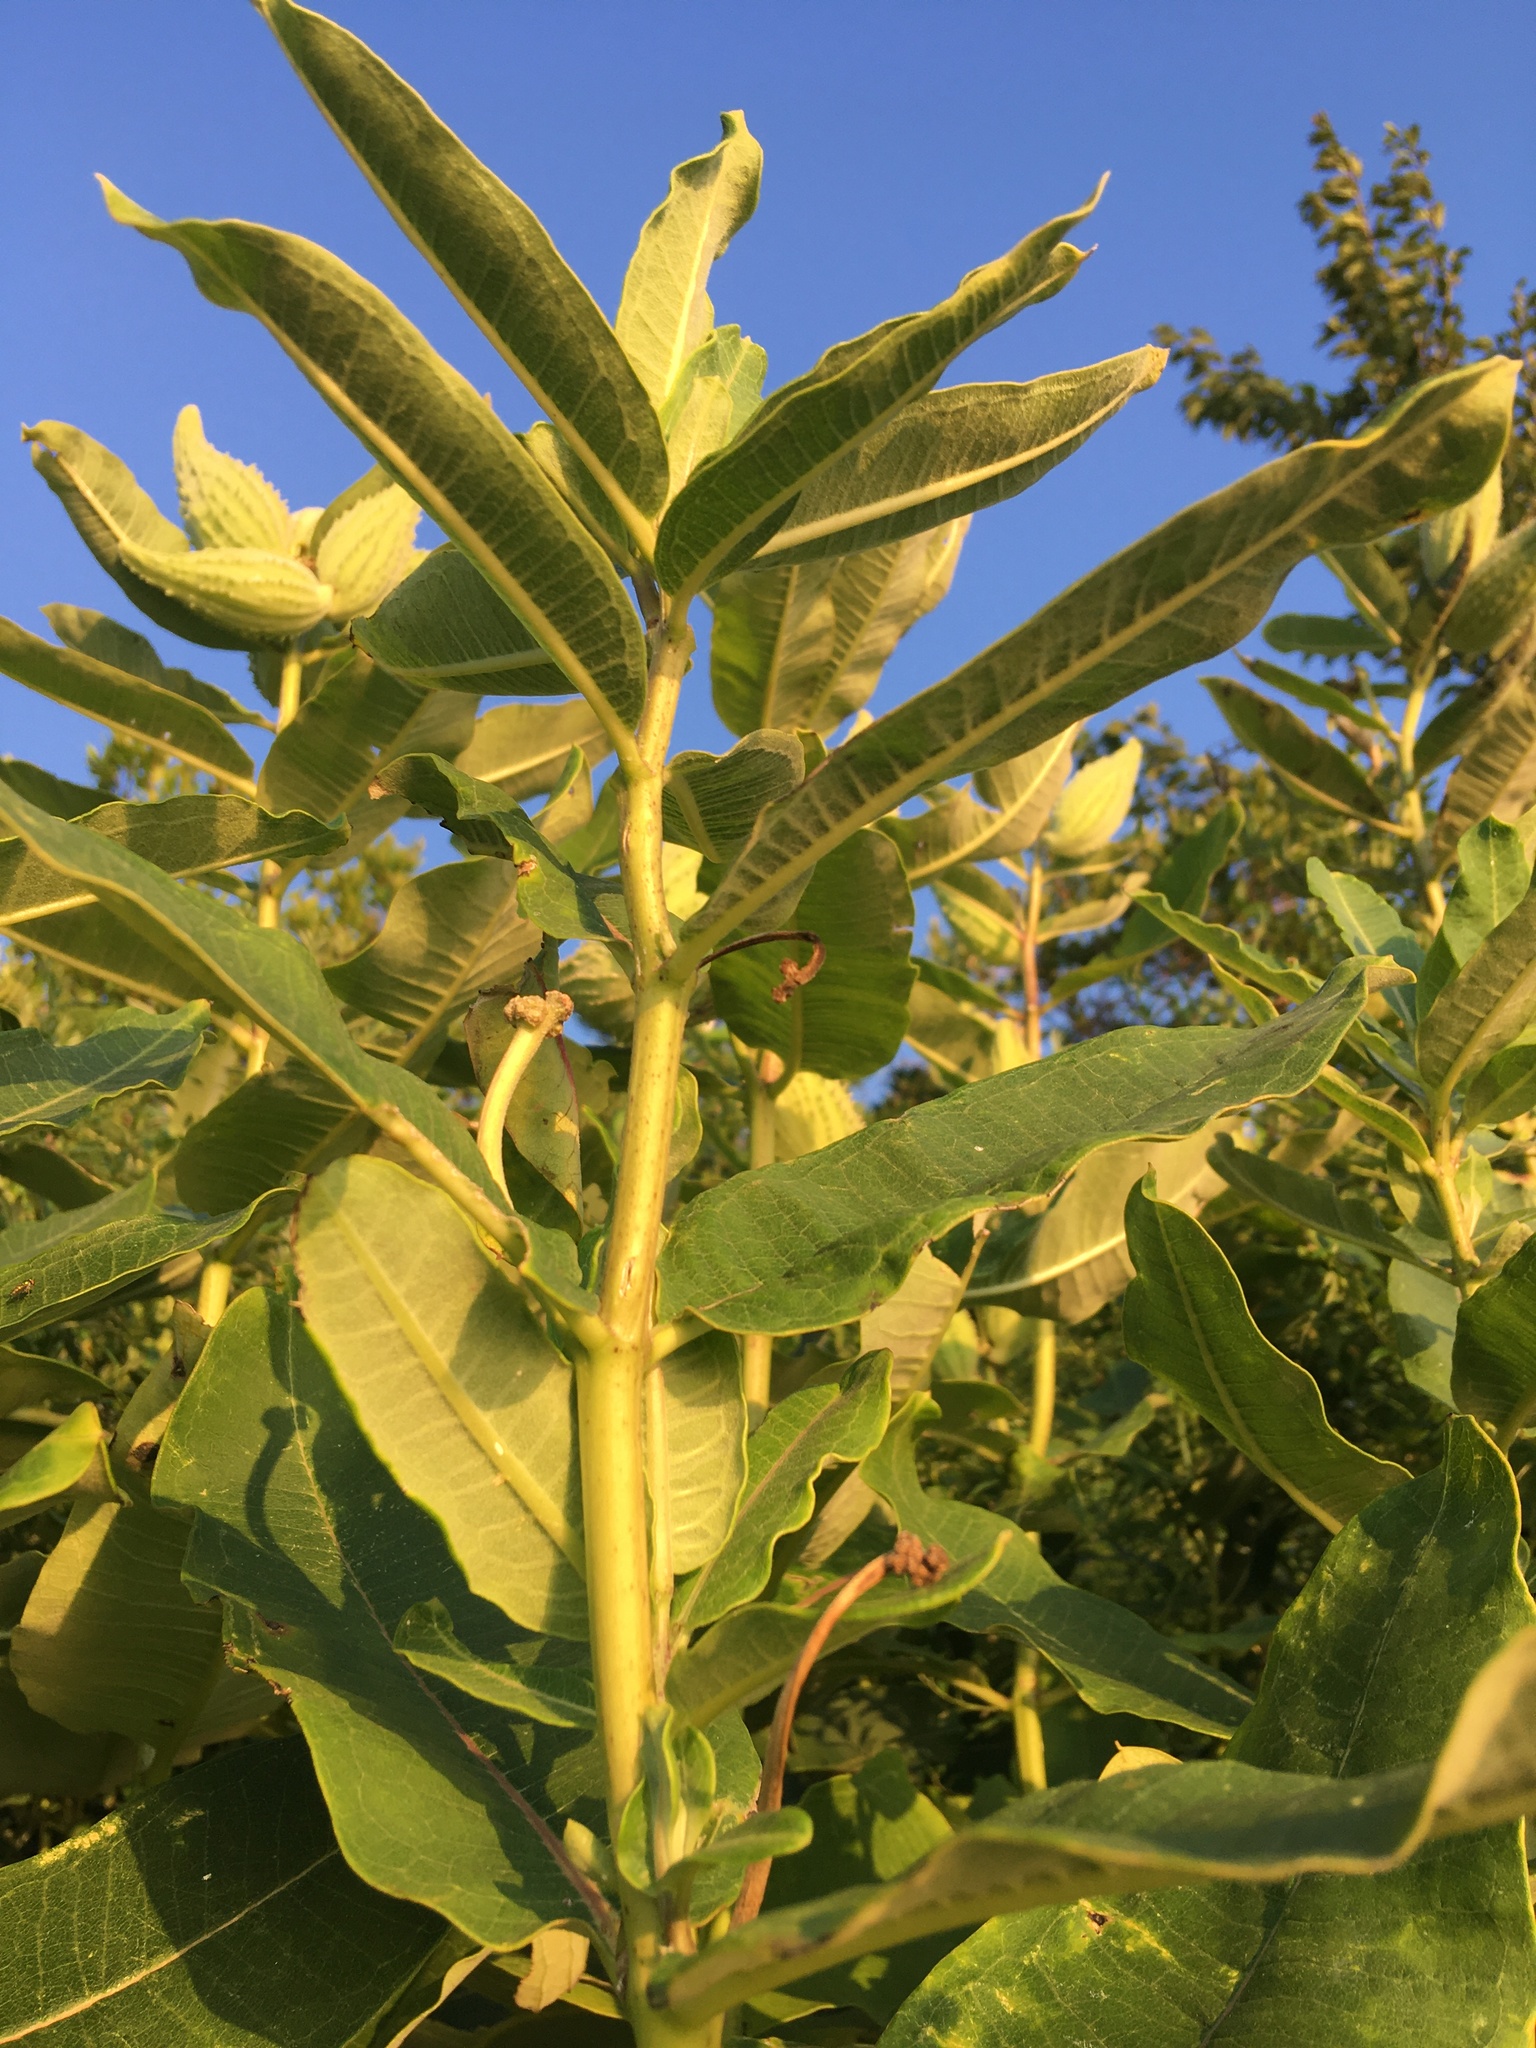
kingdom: Plantae
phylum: Tracheophyta
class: Magnoliopsida
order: Gentianales
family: Apocynaceae
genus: Asclepias
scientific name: Asclepias syriaca
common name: Common milkweed
